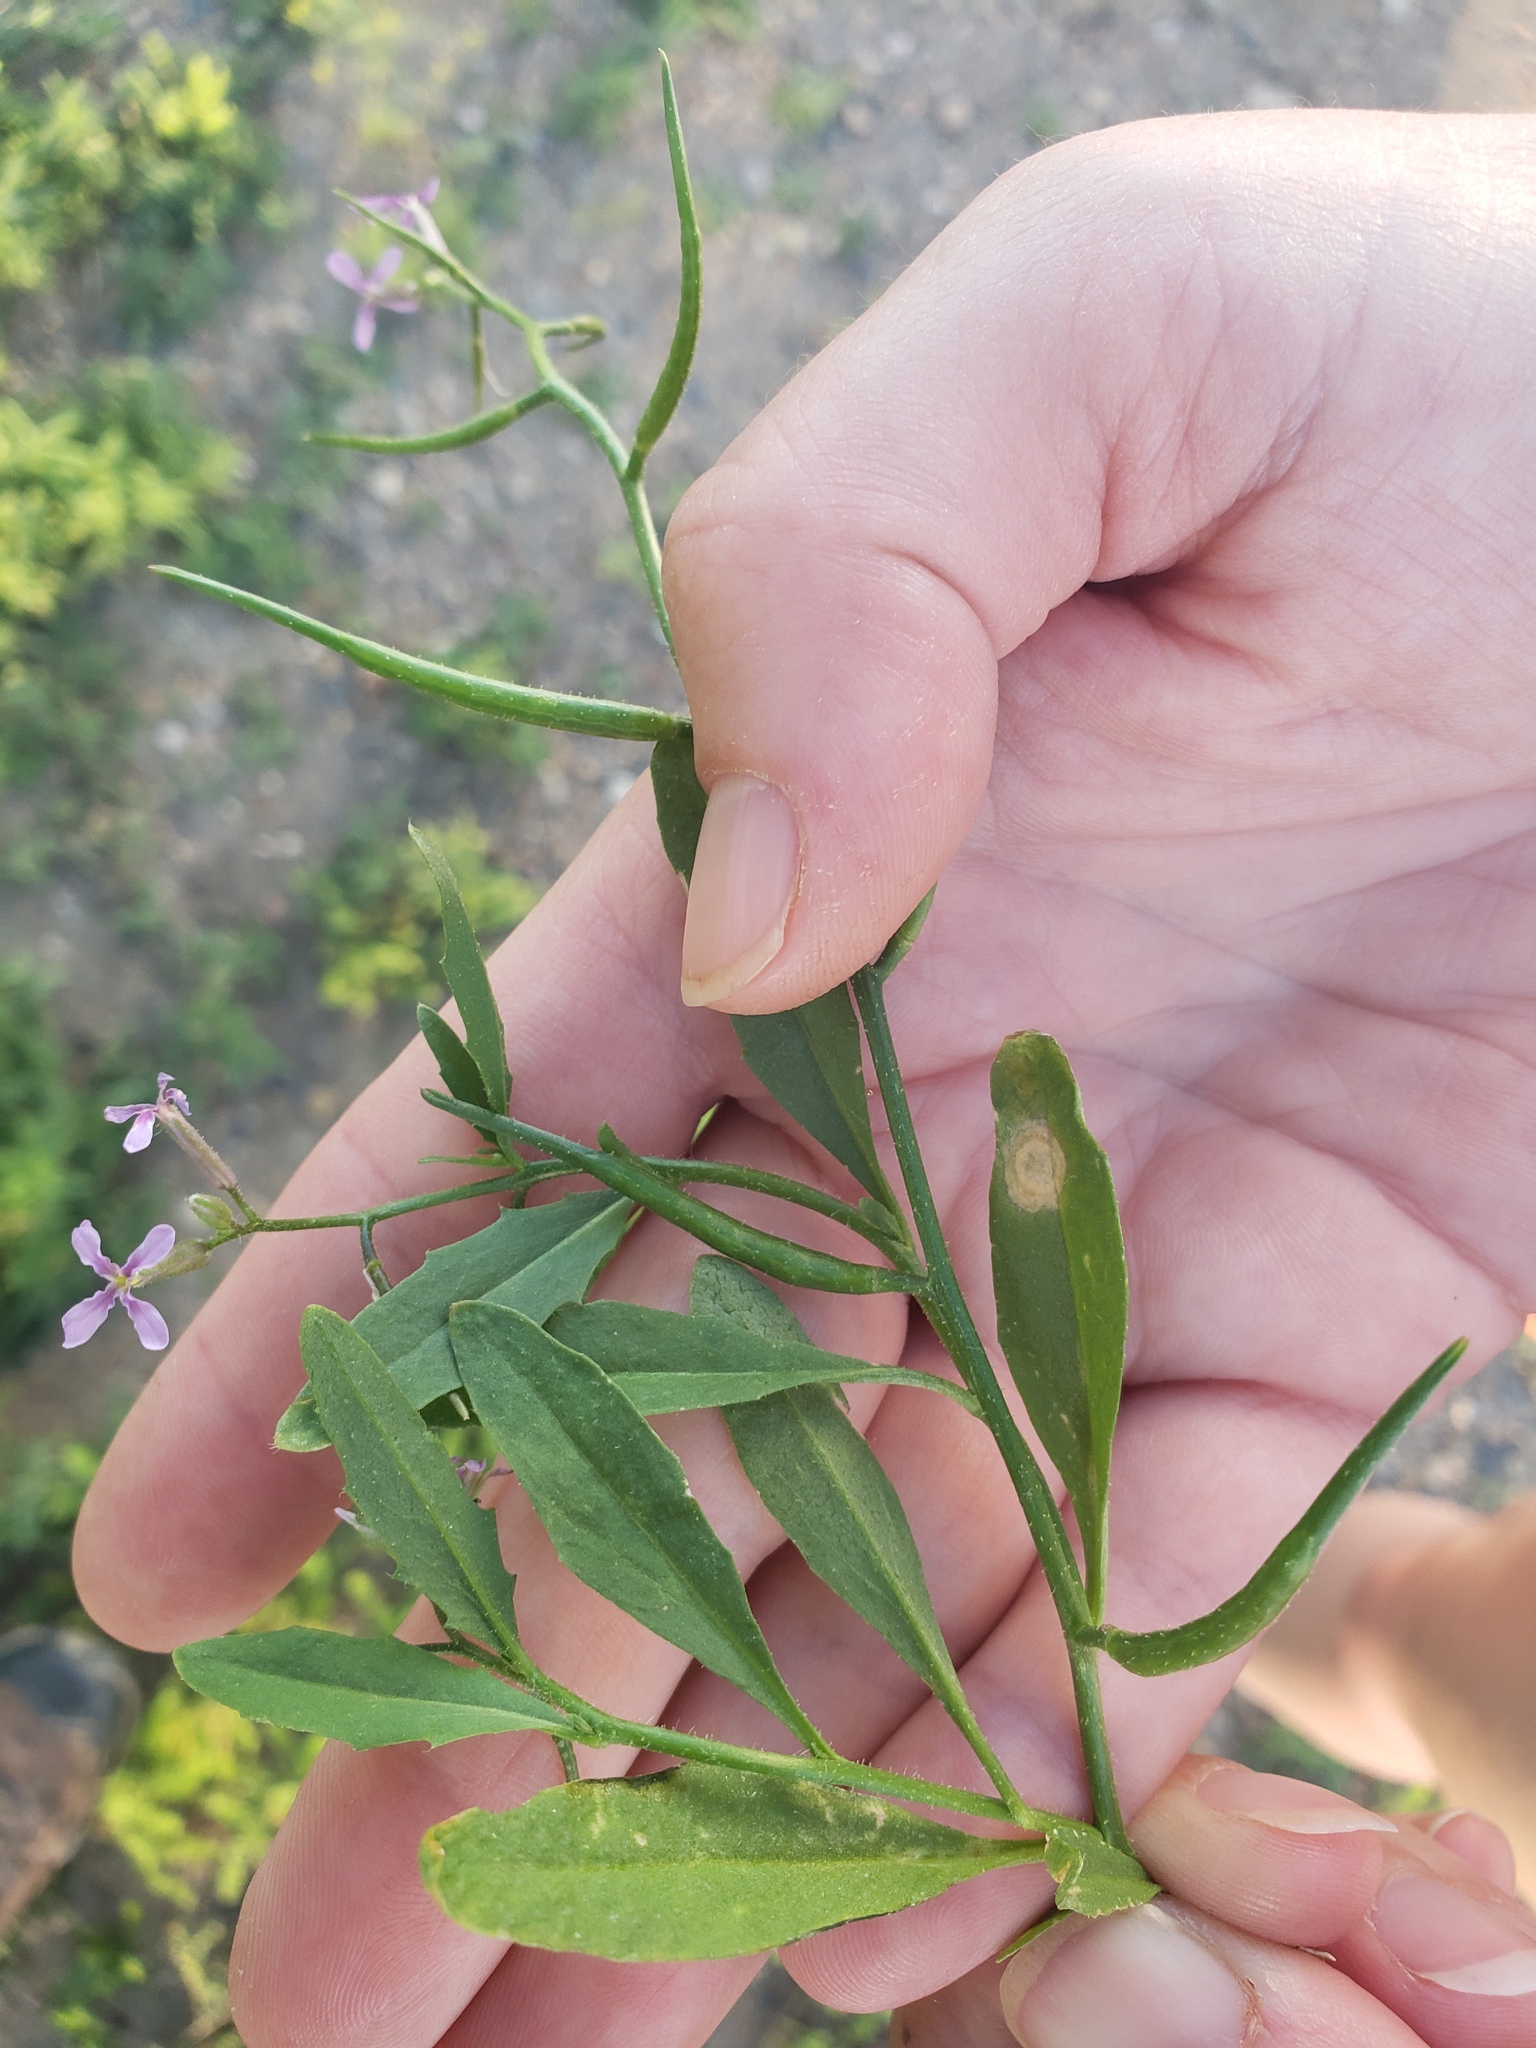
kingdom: Plantae
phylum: Tracheophyta
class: Magnoliopsida
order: Brassicales
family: Brassicaceae
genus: Chorispora
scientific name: Chorispora tenella
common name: Crossflower
